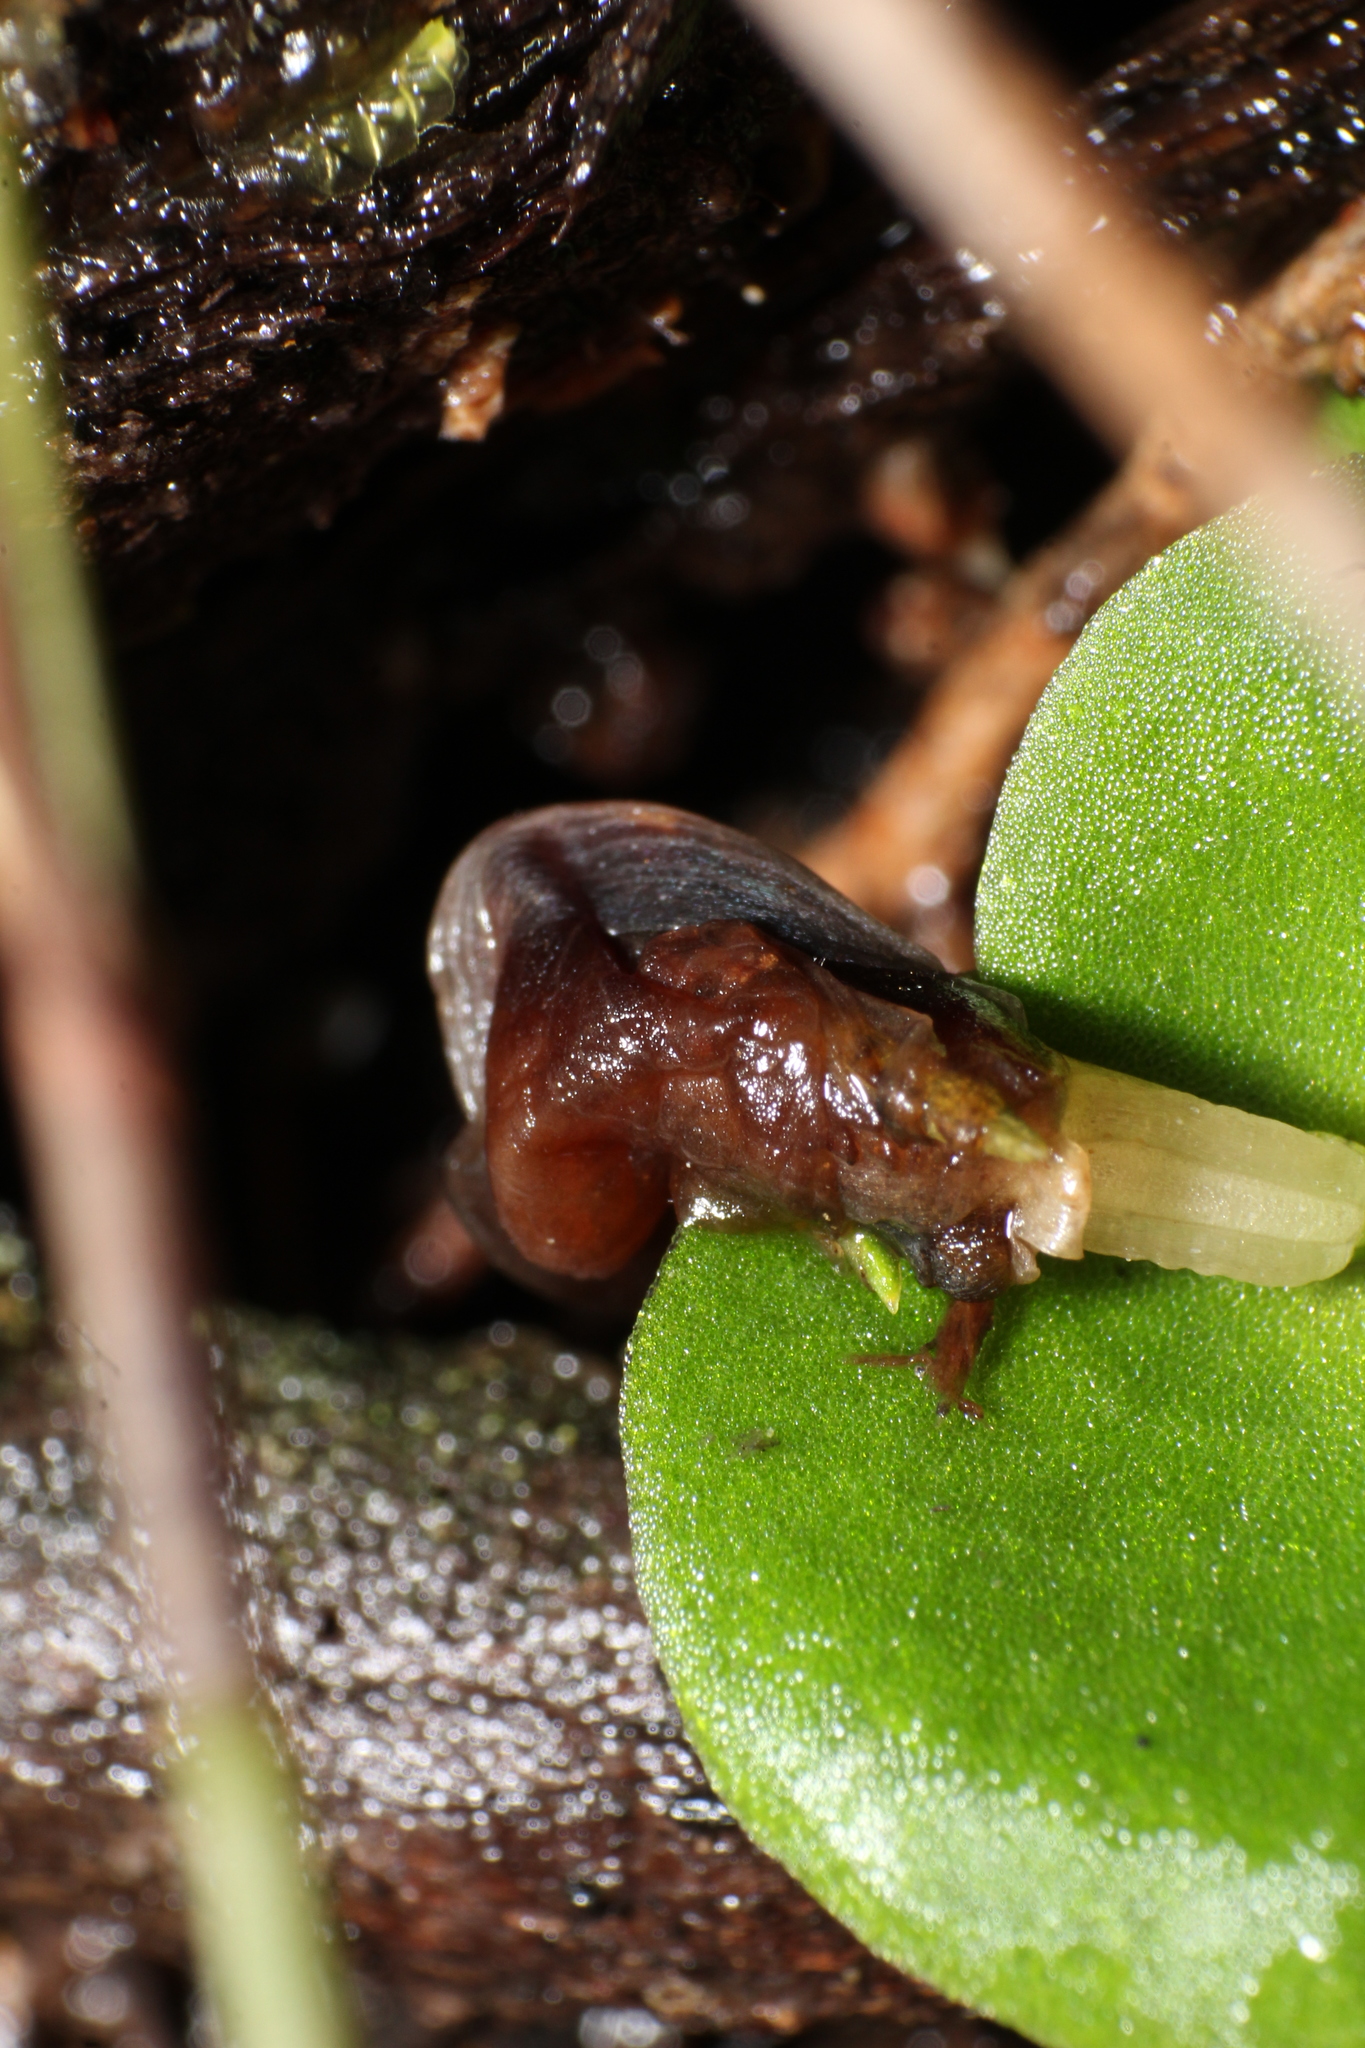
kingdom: Plantae
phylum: Tracheophyta
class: Liliopsida
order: Asparagales
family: Orchidaceae
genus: Corybas
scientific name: Corybas recurvus
